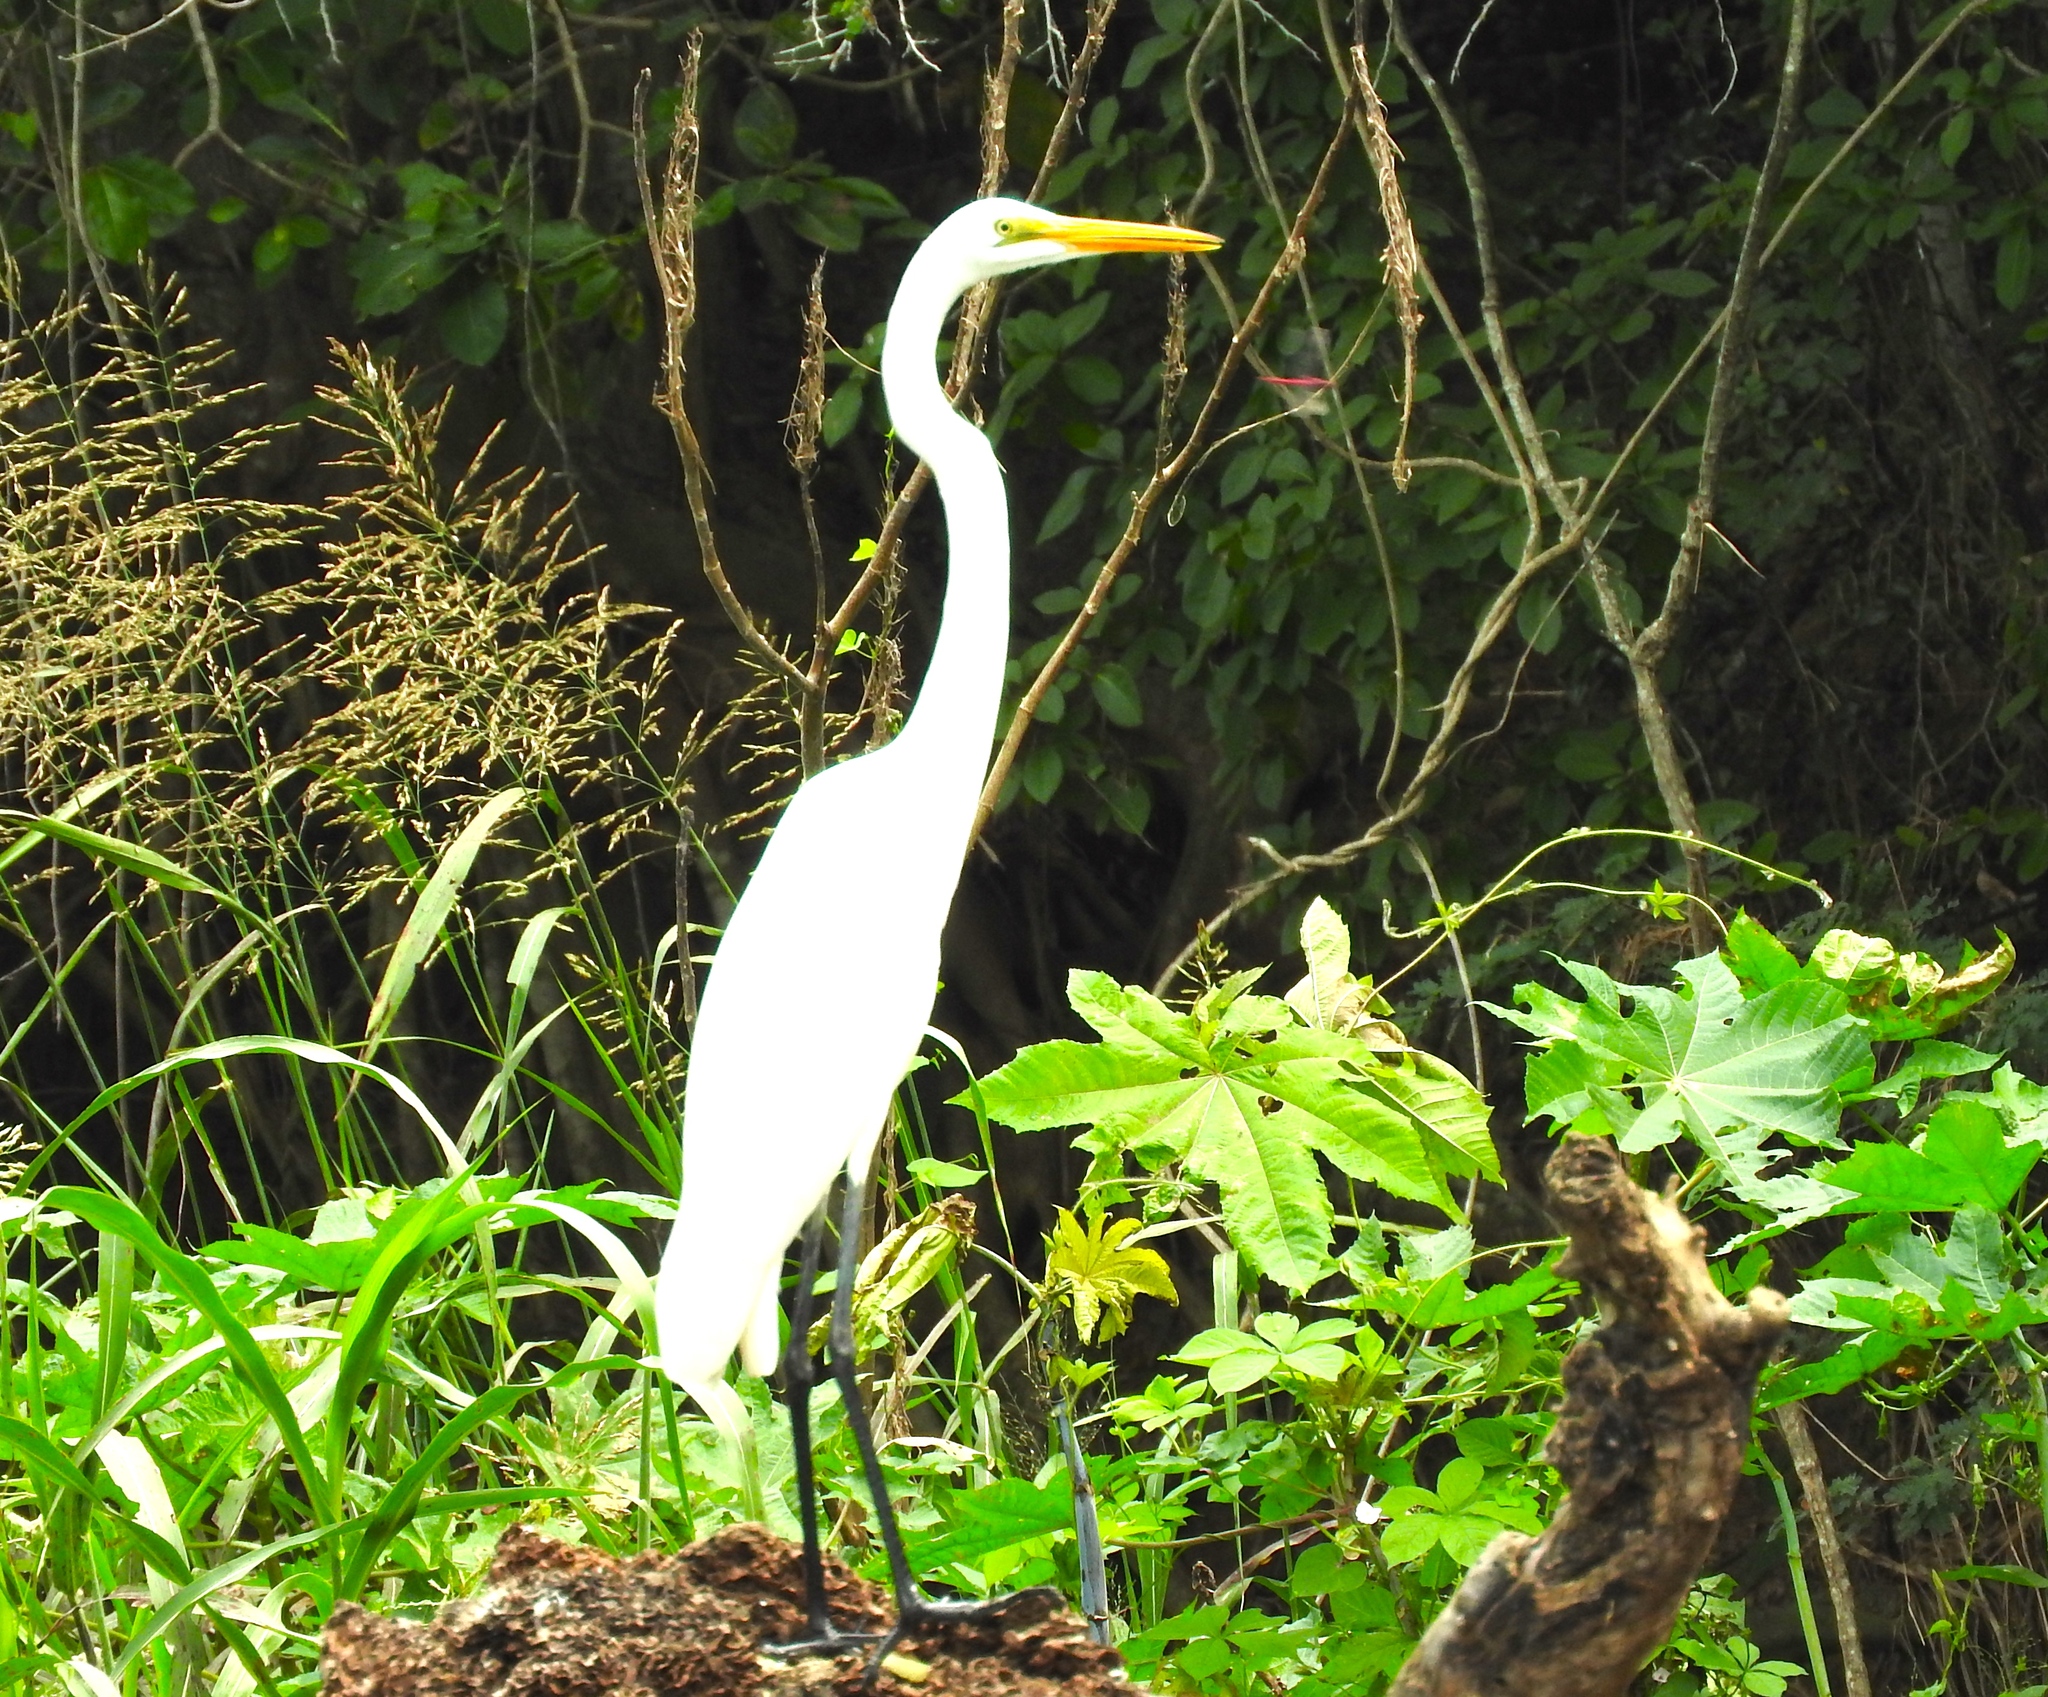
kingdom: Animalia
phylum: Chordata
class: Aves
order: Pelecaniformes
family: Ardeidae
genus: Ardea
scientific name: Ardea alba
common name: Great egret
